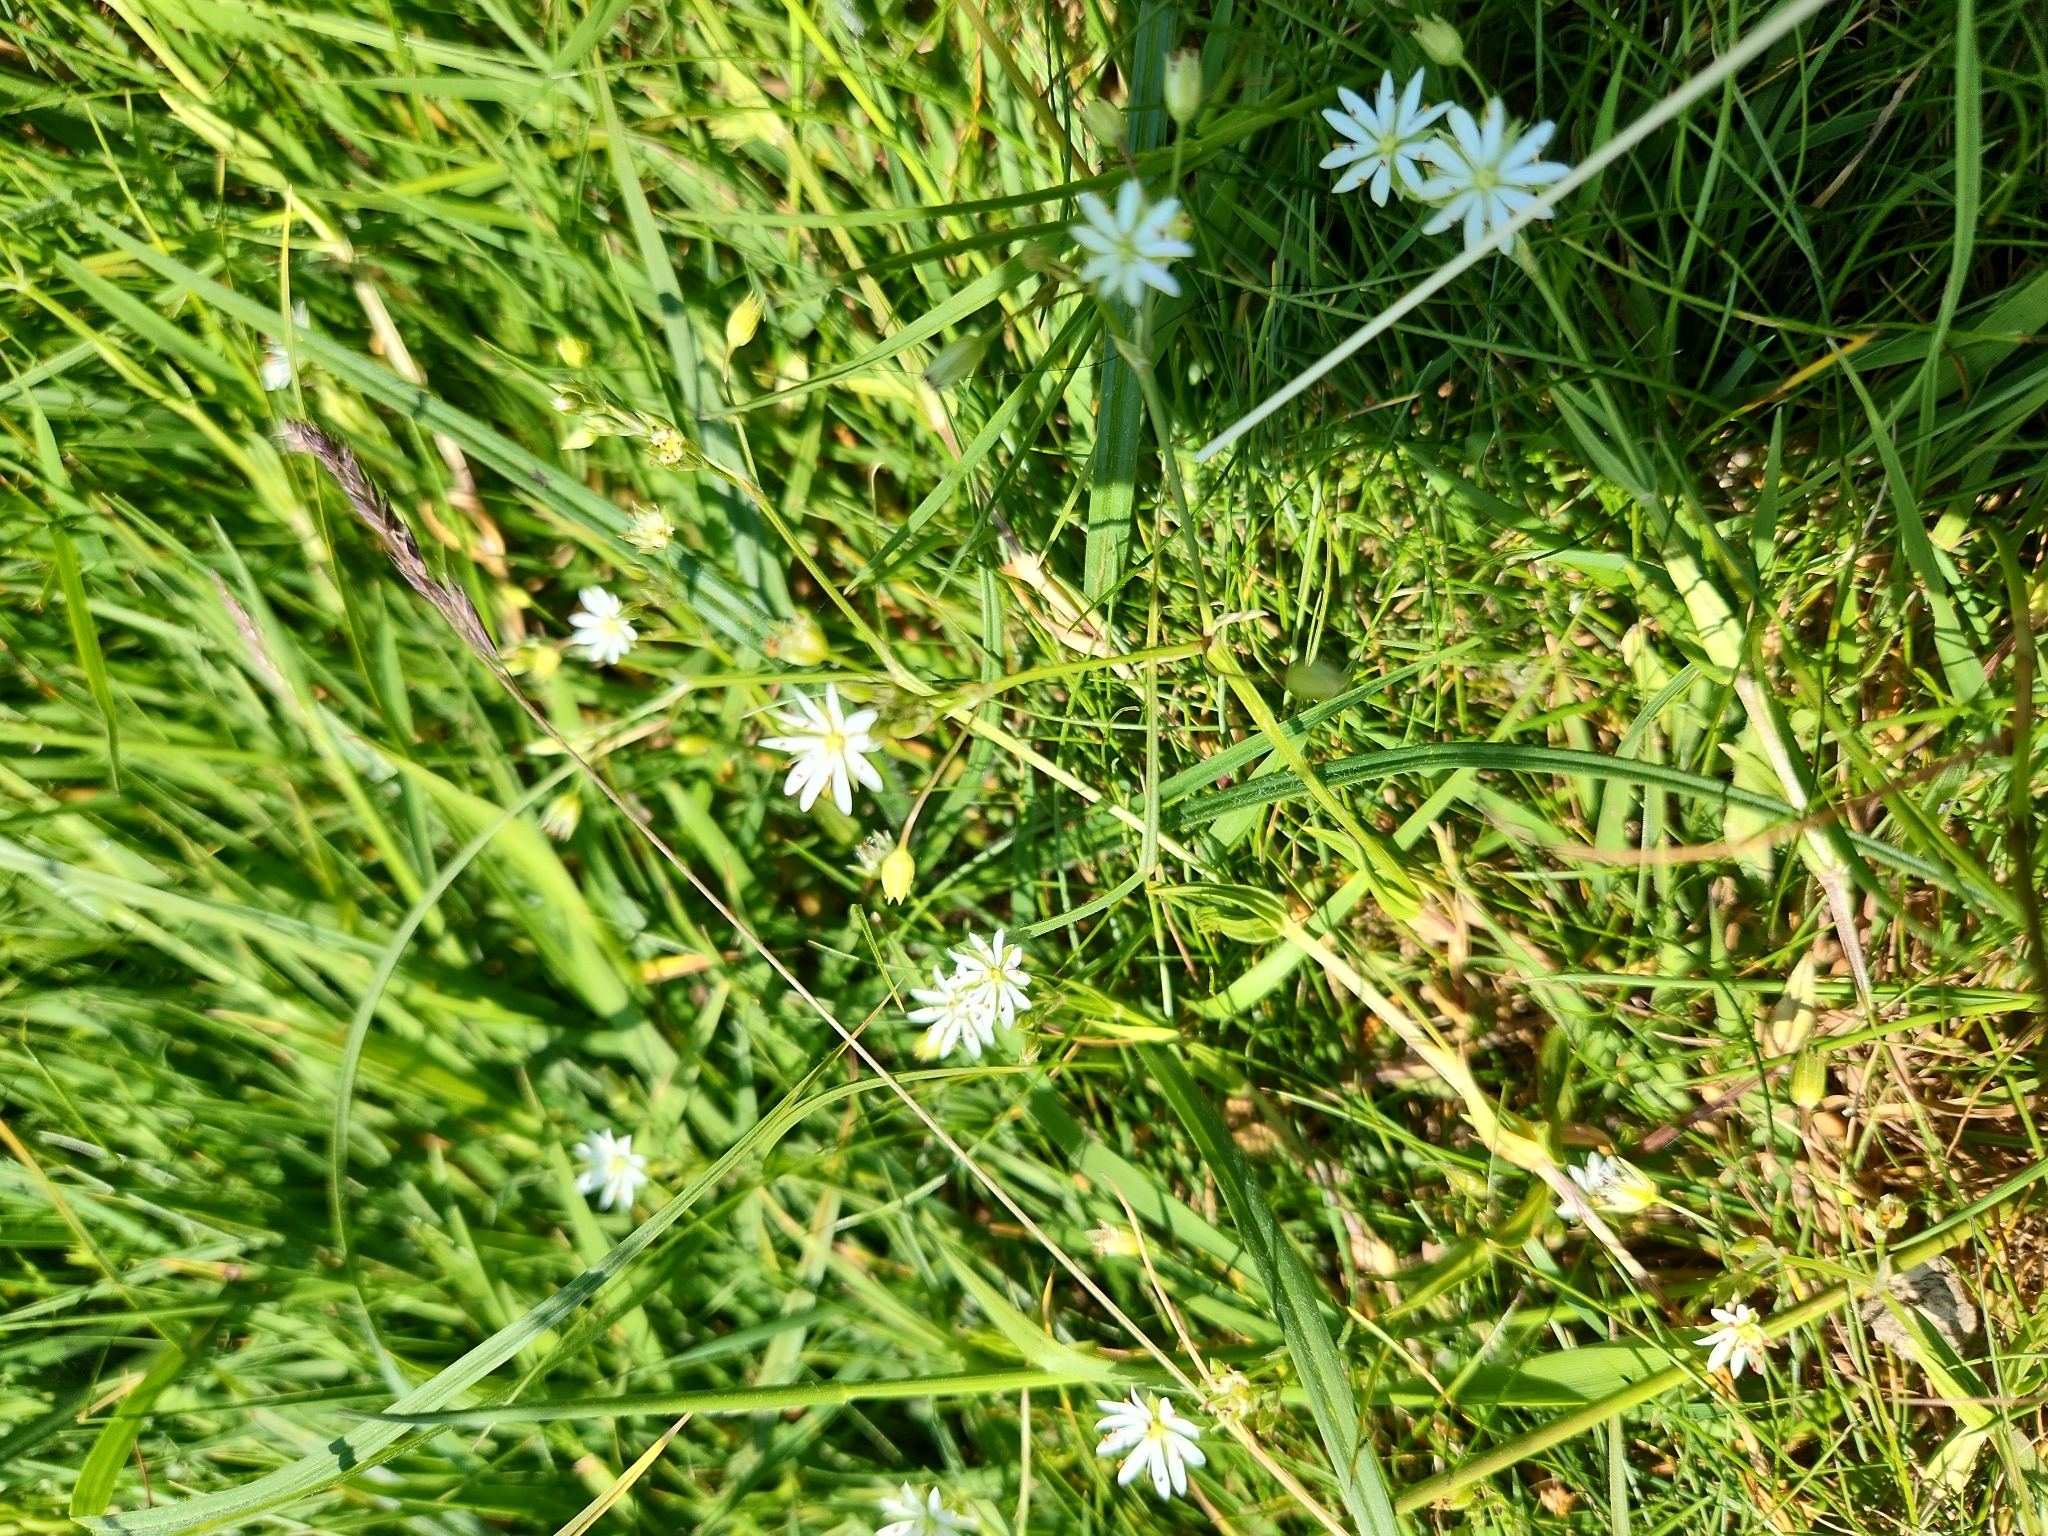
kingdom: Plantae
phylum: Tracheophyta
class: Magnoliopsida
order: Caryophyllales
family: Caryophyllaceae
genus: Stellaria
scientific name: Stellaria graminea
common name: Grass-like starwort
